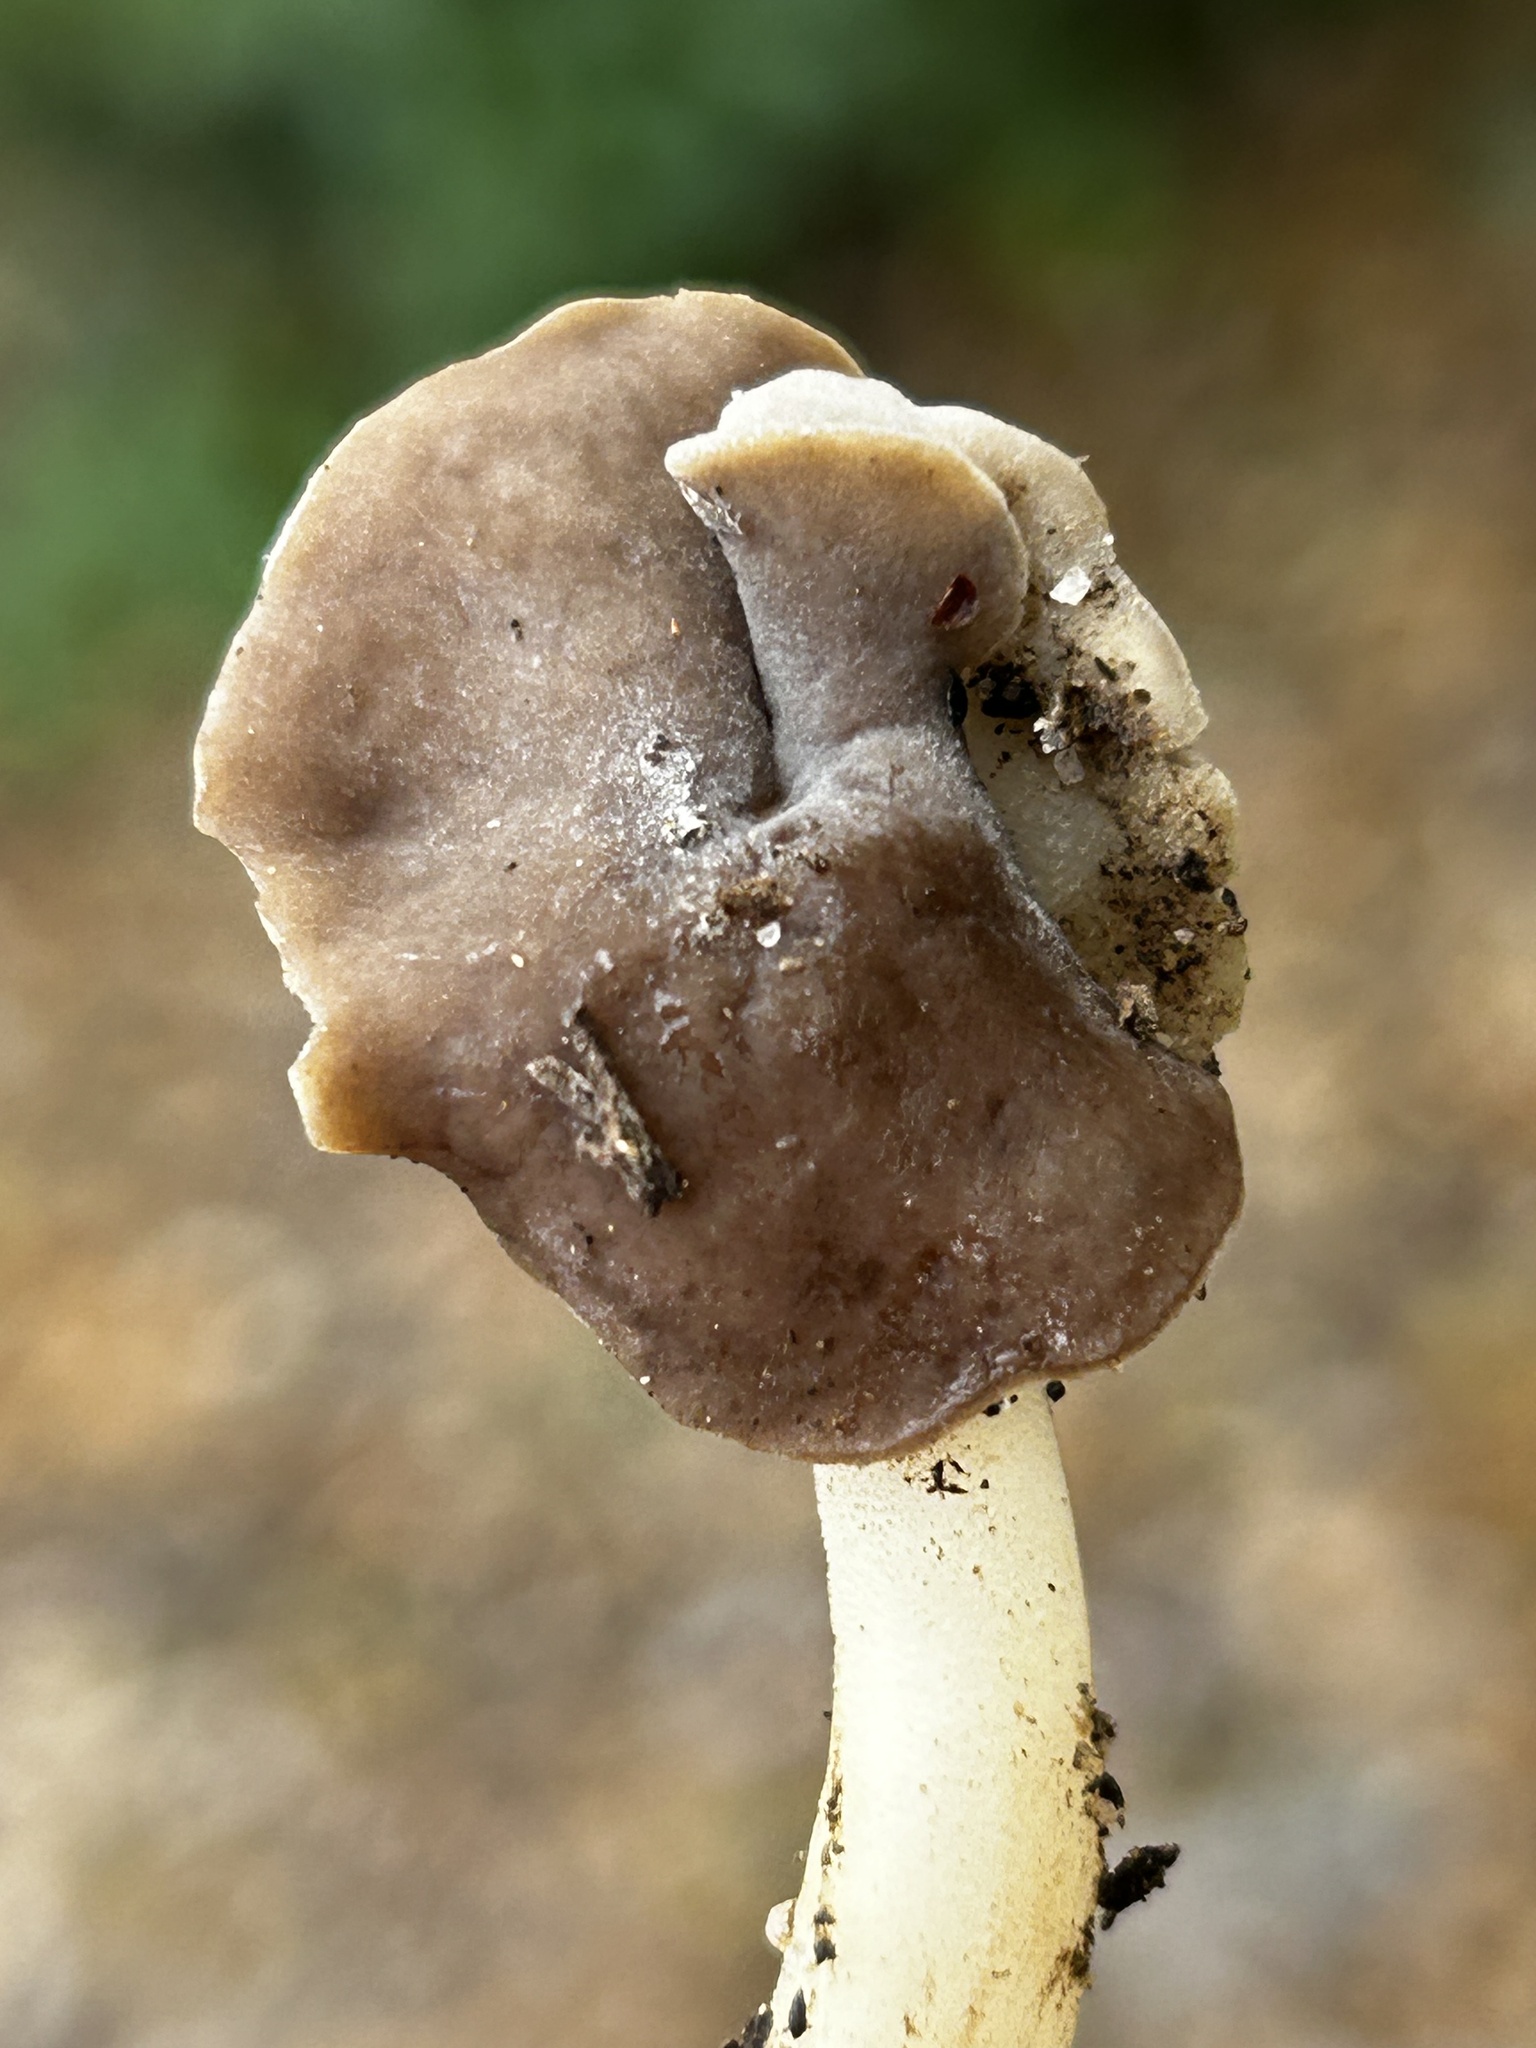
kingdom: Fungi
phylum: Ascomycota
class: Pezizomycetes
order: Pezizales
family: Helvellaceae
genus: Helvella
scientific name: Helvella compressa
